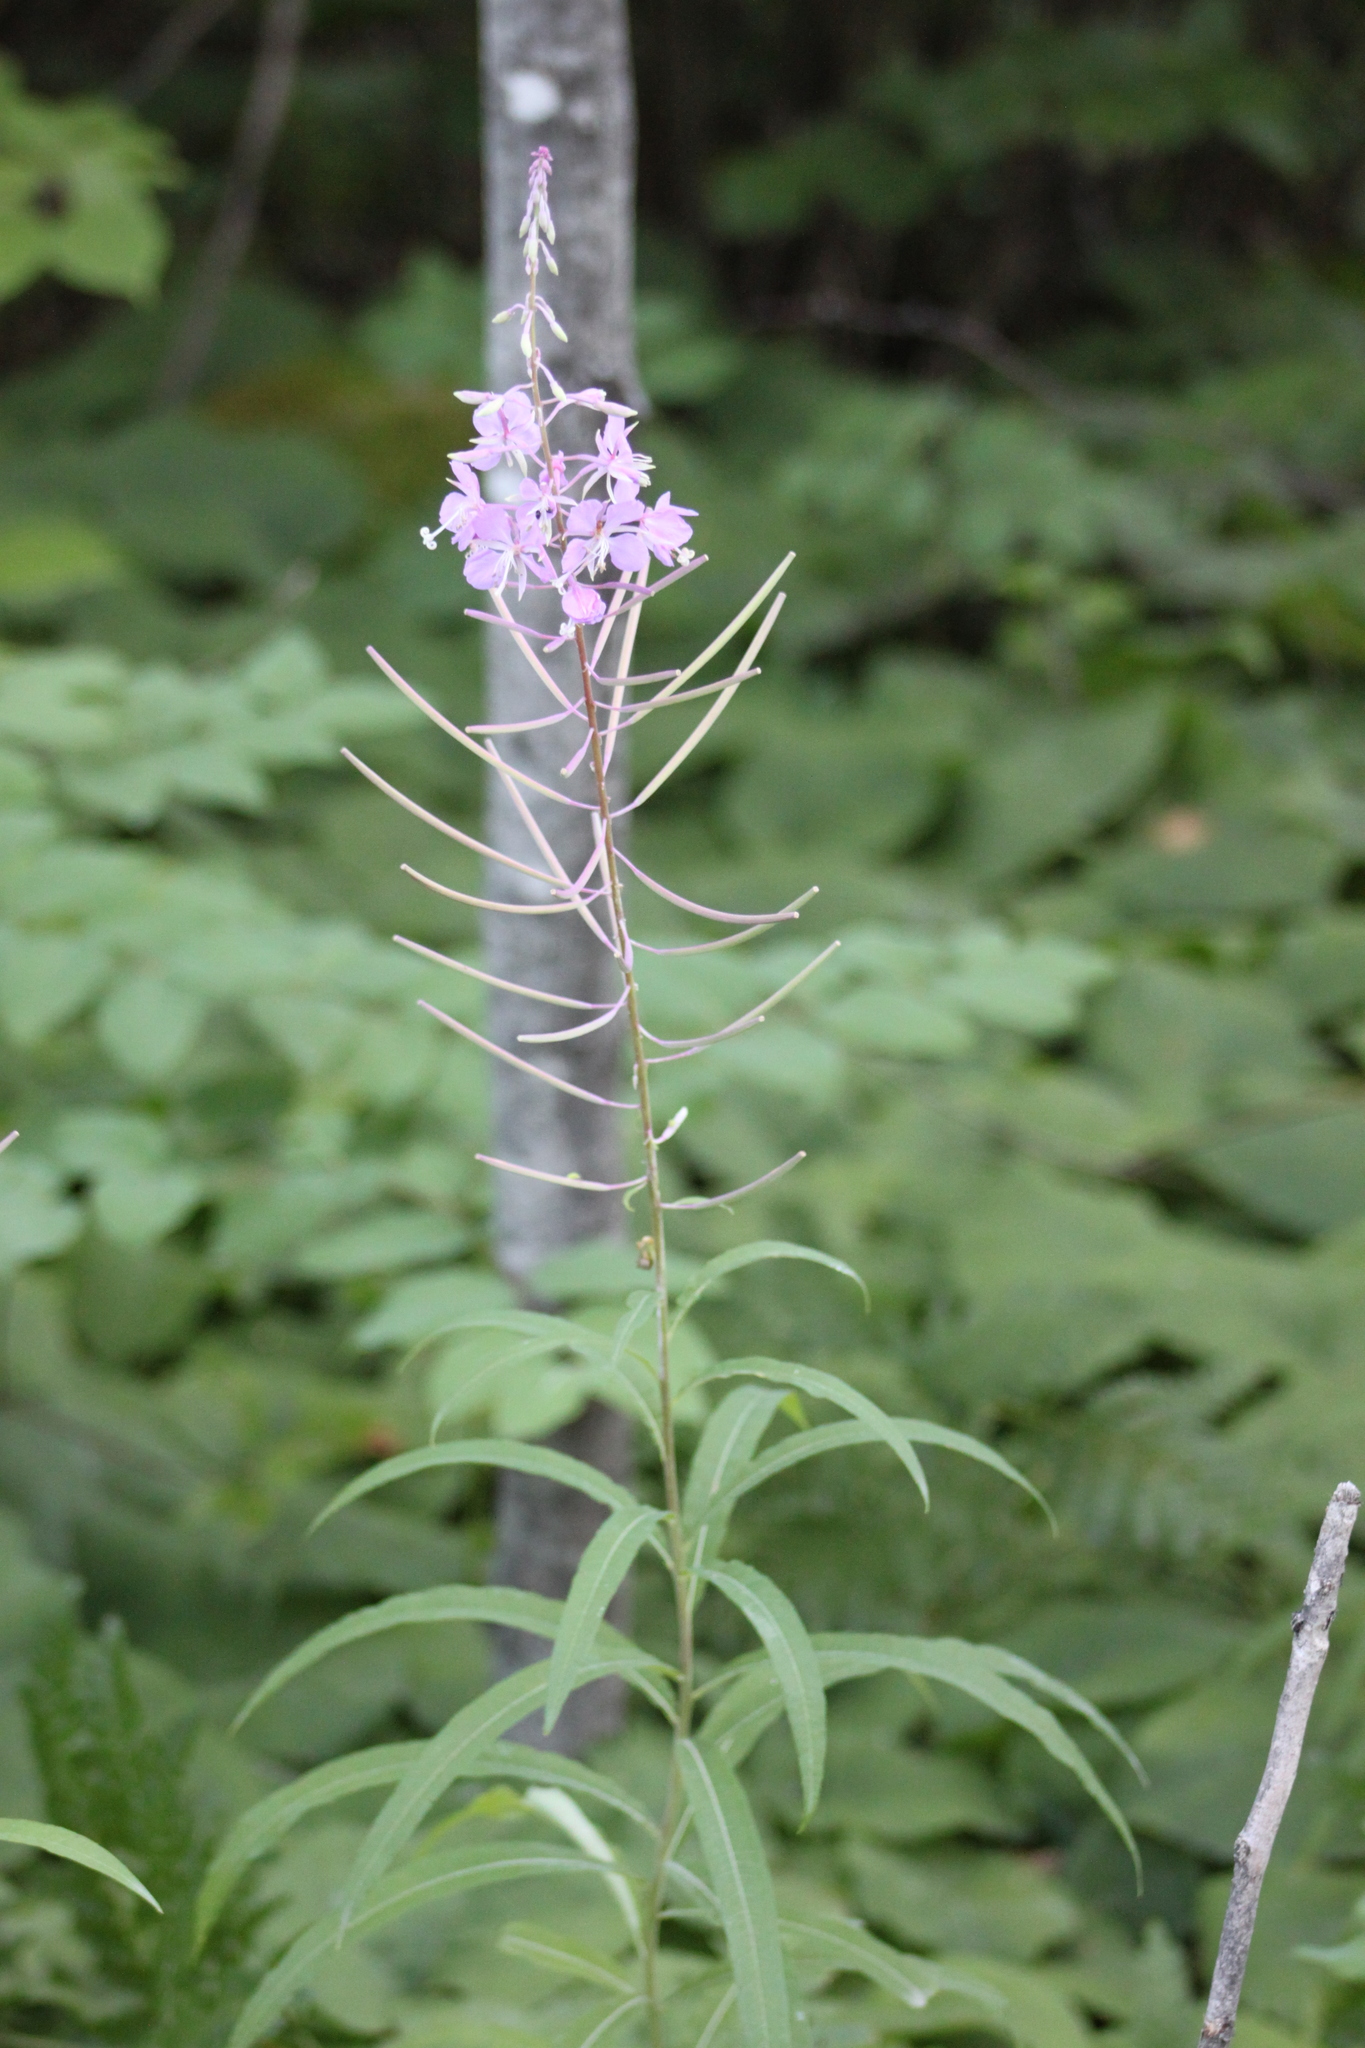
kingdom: Plantae
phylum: Tracheophyta
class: Magnoliopsida
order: Myrtales
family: Onagraceae
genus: Chamaenerion
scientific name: Chamaenerion angustifolium
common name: Fireweed
